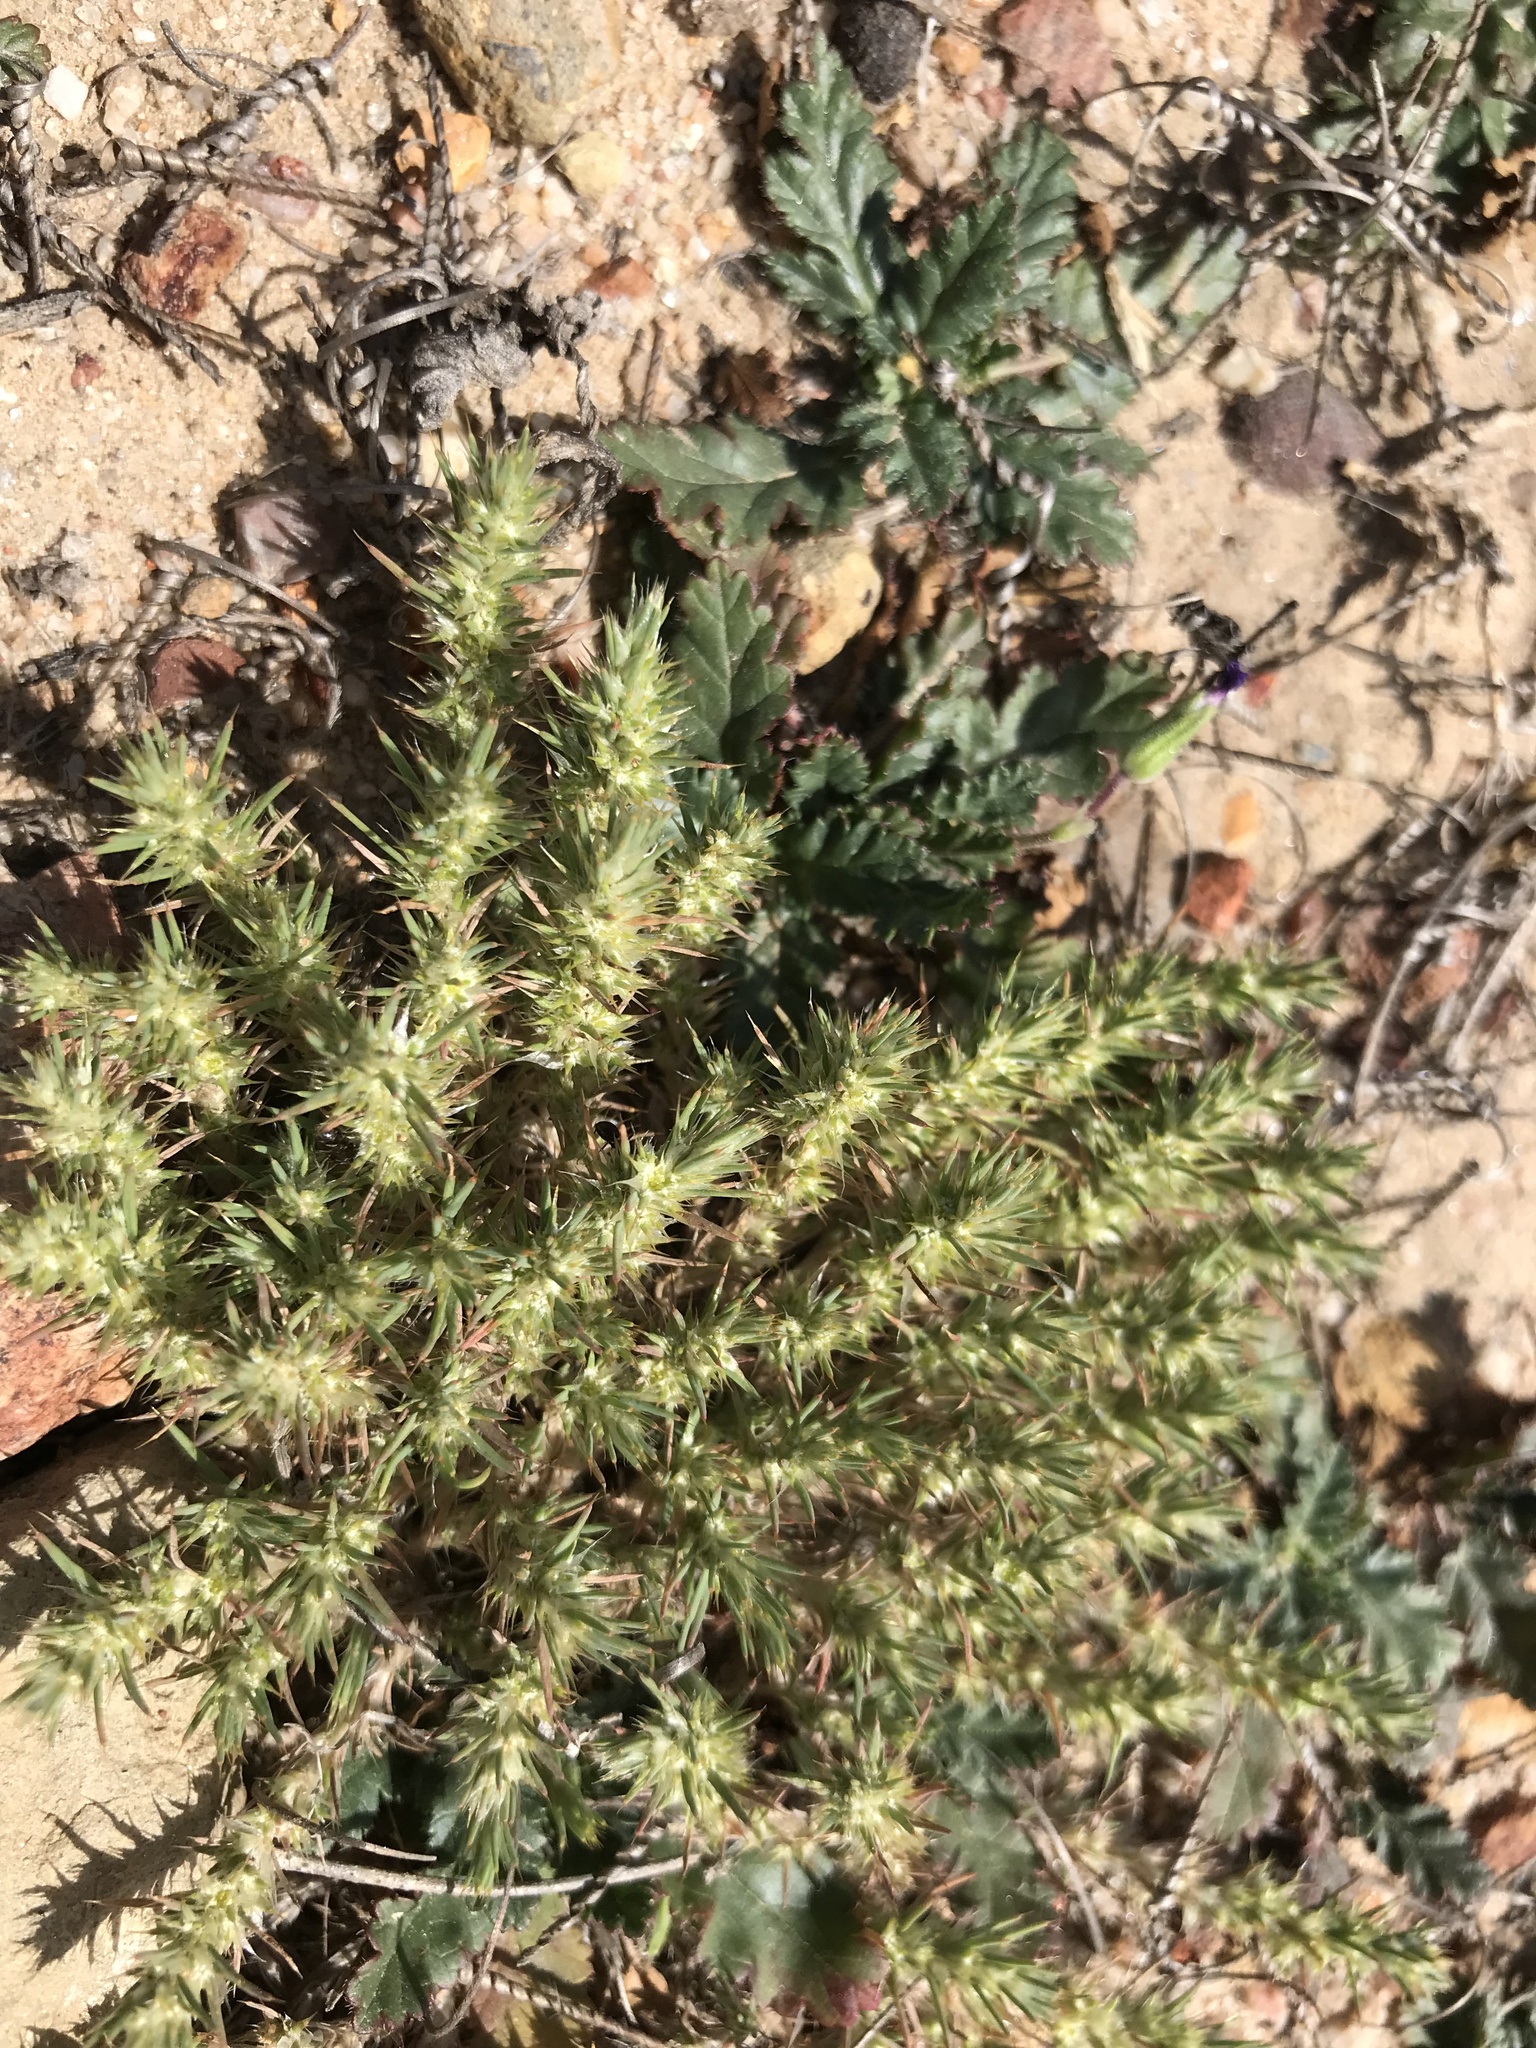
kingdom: Plantae
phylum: Tracheophyta
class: Magnoliopsida
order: Caryophyllales
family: Caryophyllaceae
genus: Cardionema
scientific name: Cardionema ramosissima
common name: Sandcarpet
